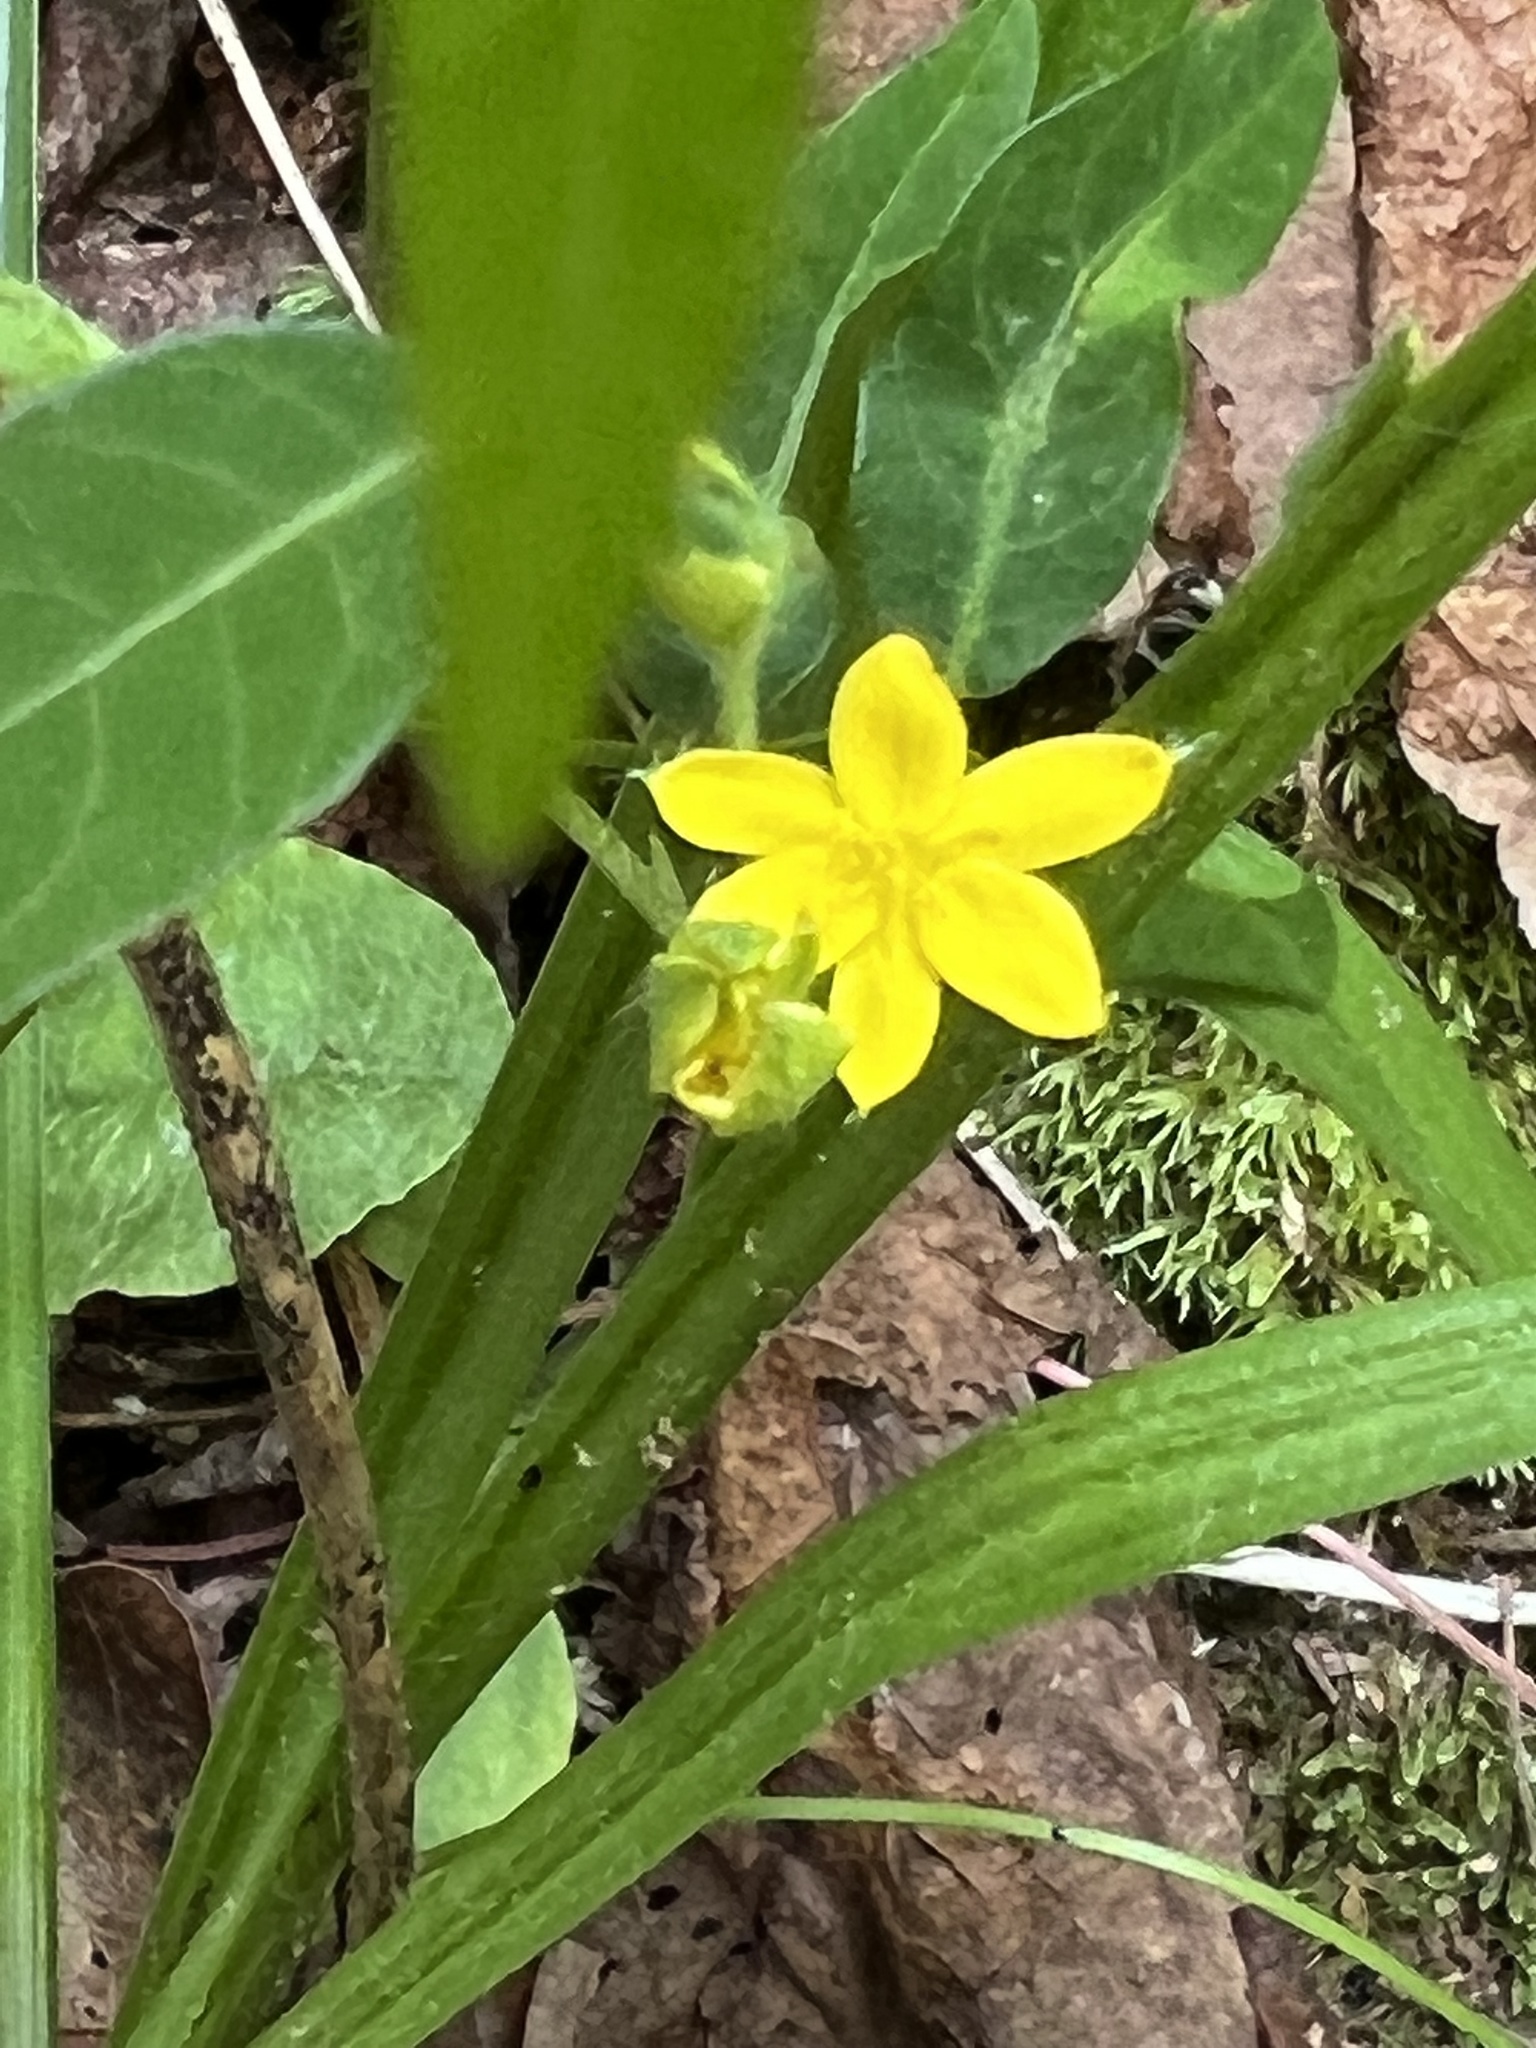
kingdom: Plantae
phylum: Tracheophyta
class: Liliopsida
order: Asparagales
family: Hypoxidaceae
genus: Hypoxis
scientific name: Hypoxis hirsuta
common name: Common goldstar
